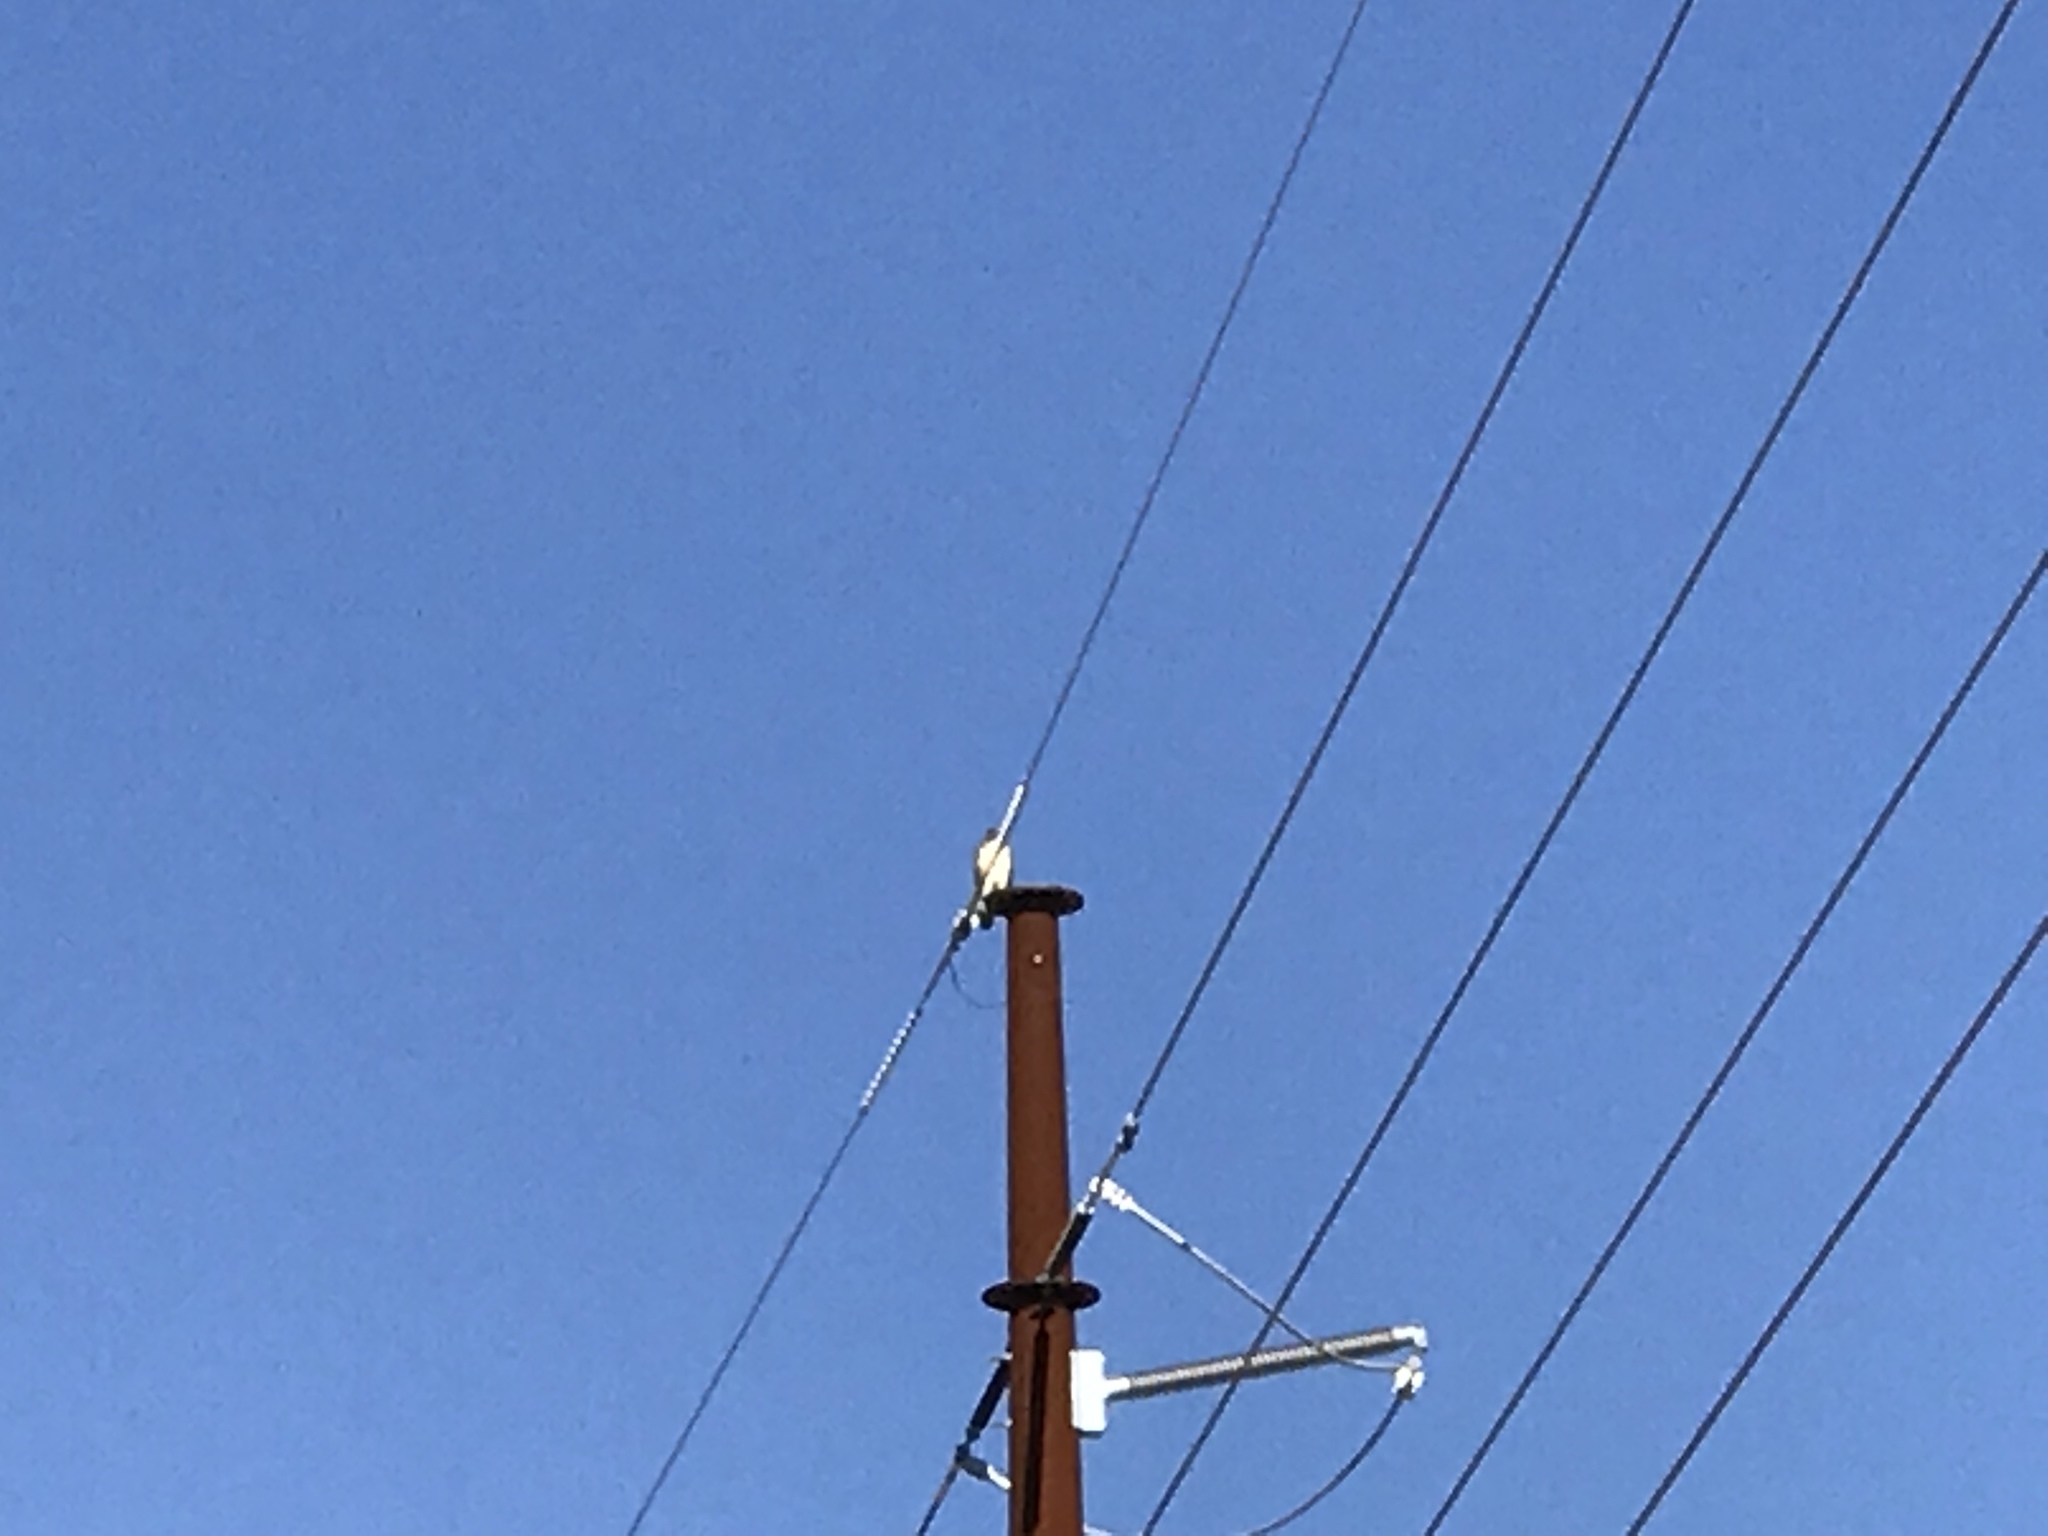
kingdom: Animalia
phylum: Chordata
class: Aves
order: Accipitriformes
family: Accipitridae
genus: Buteo
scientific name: Buteo jamaicensis
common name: Red-tailed hawk
